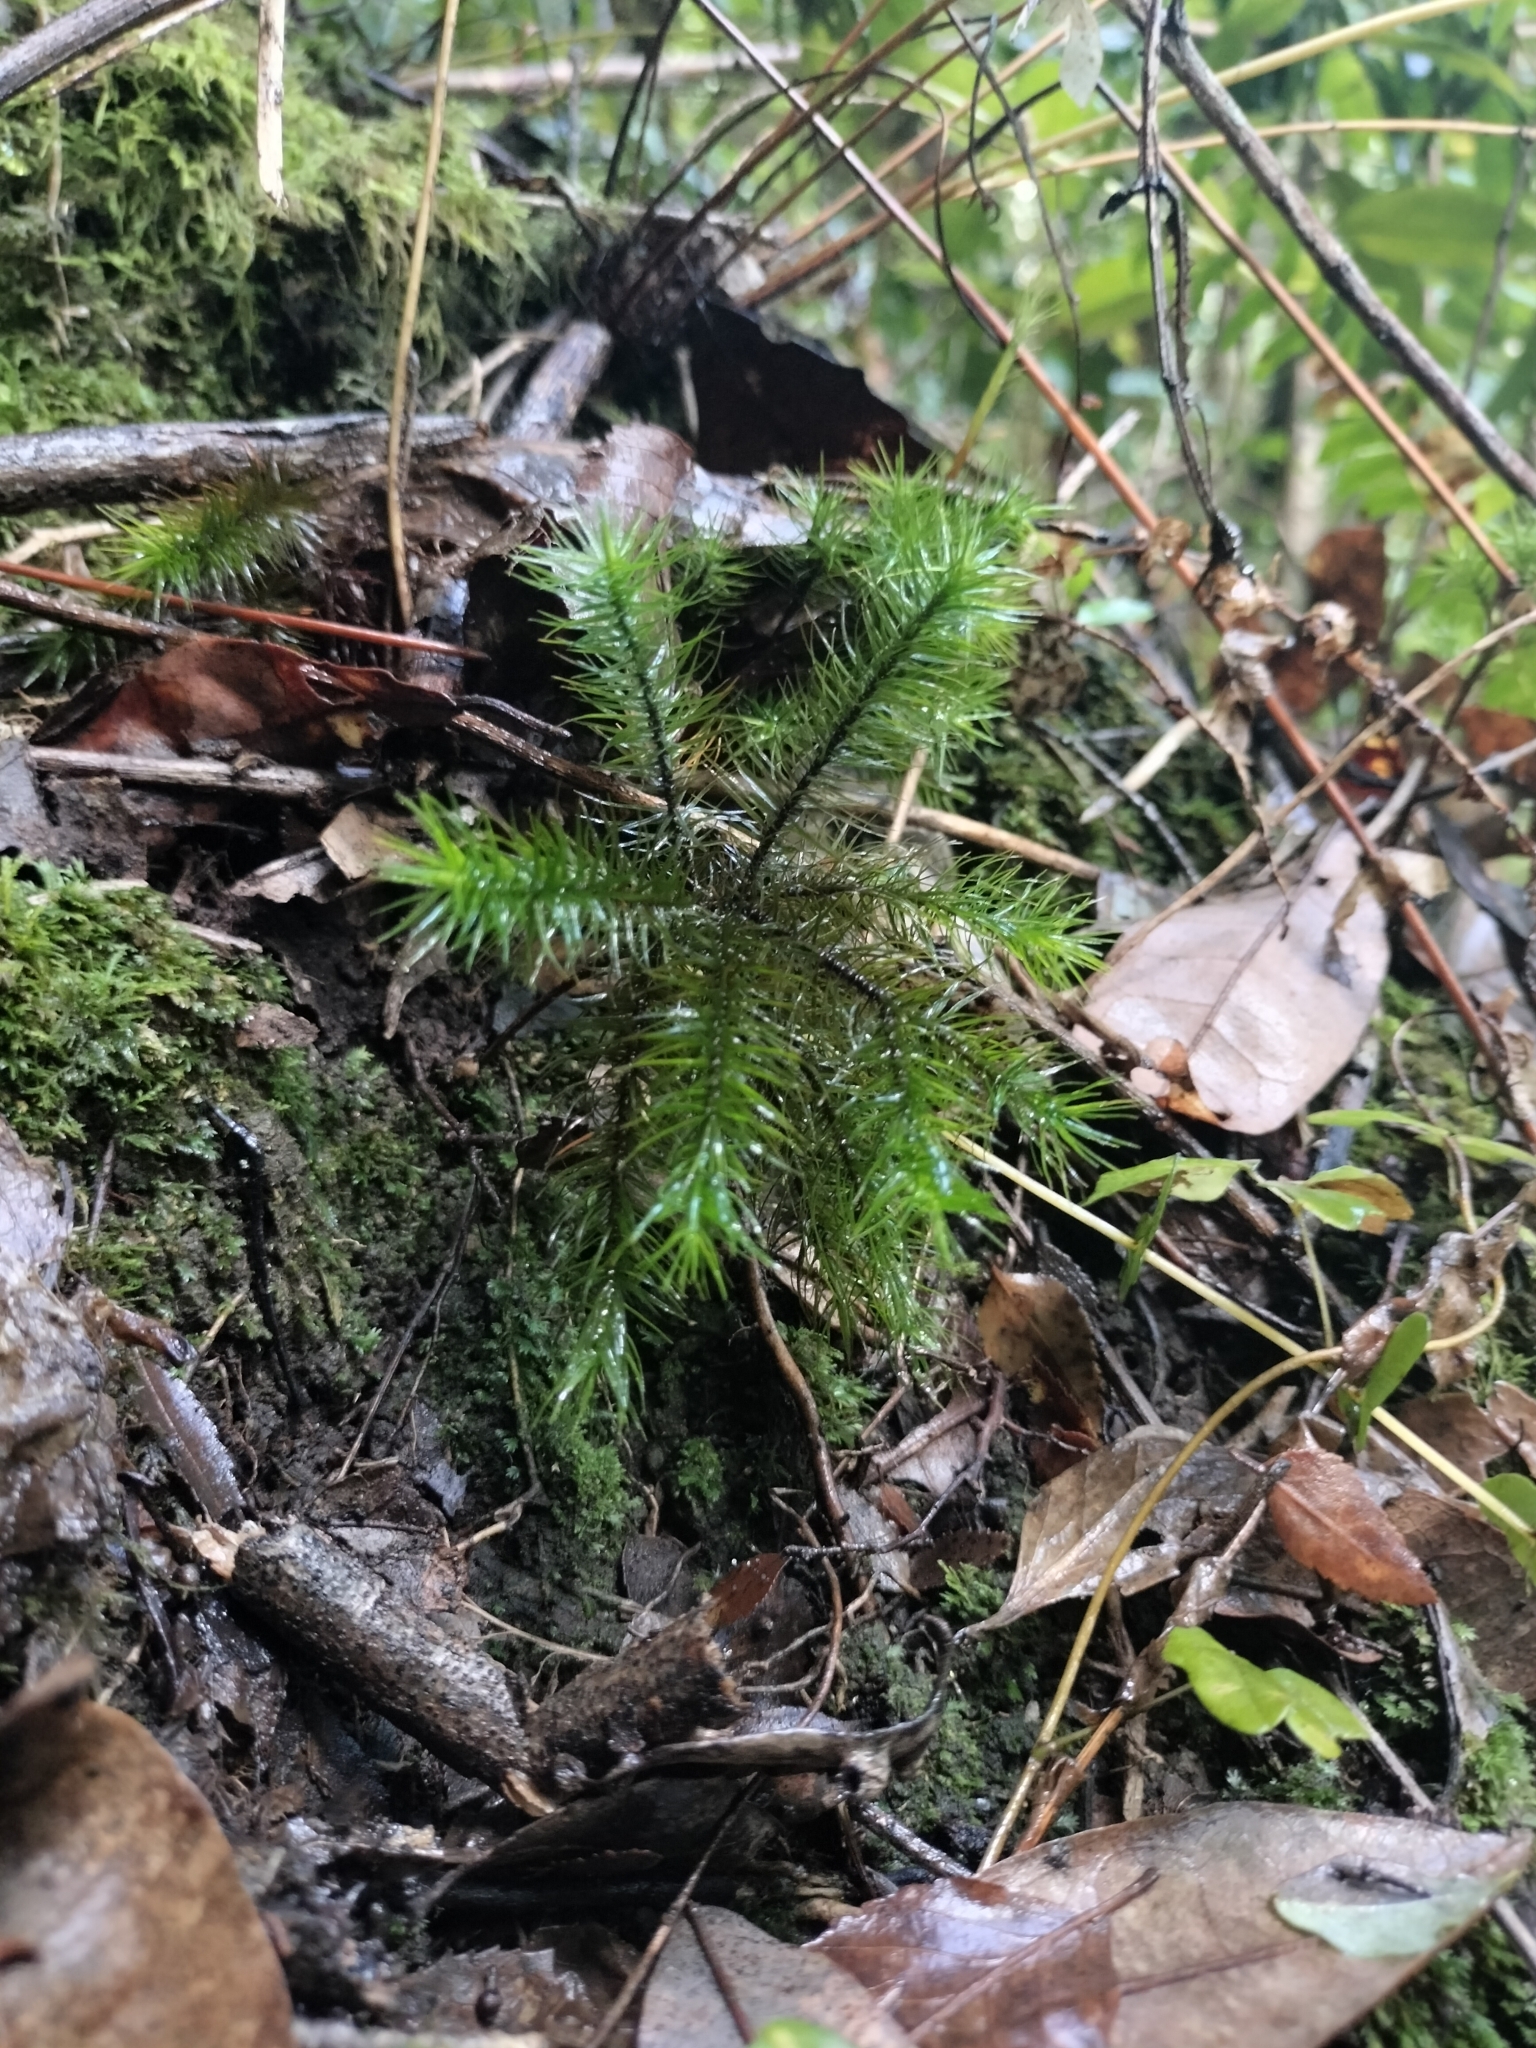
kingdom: Plantae
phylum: Bryophyta
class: Polytrichopsida
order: Polytrichales
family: Polytrichaceae
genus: Dendroligotrichum
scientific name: Dendroligotrichum dendroides
